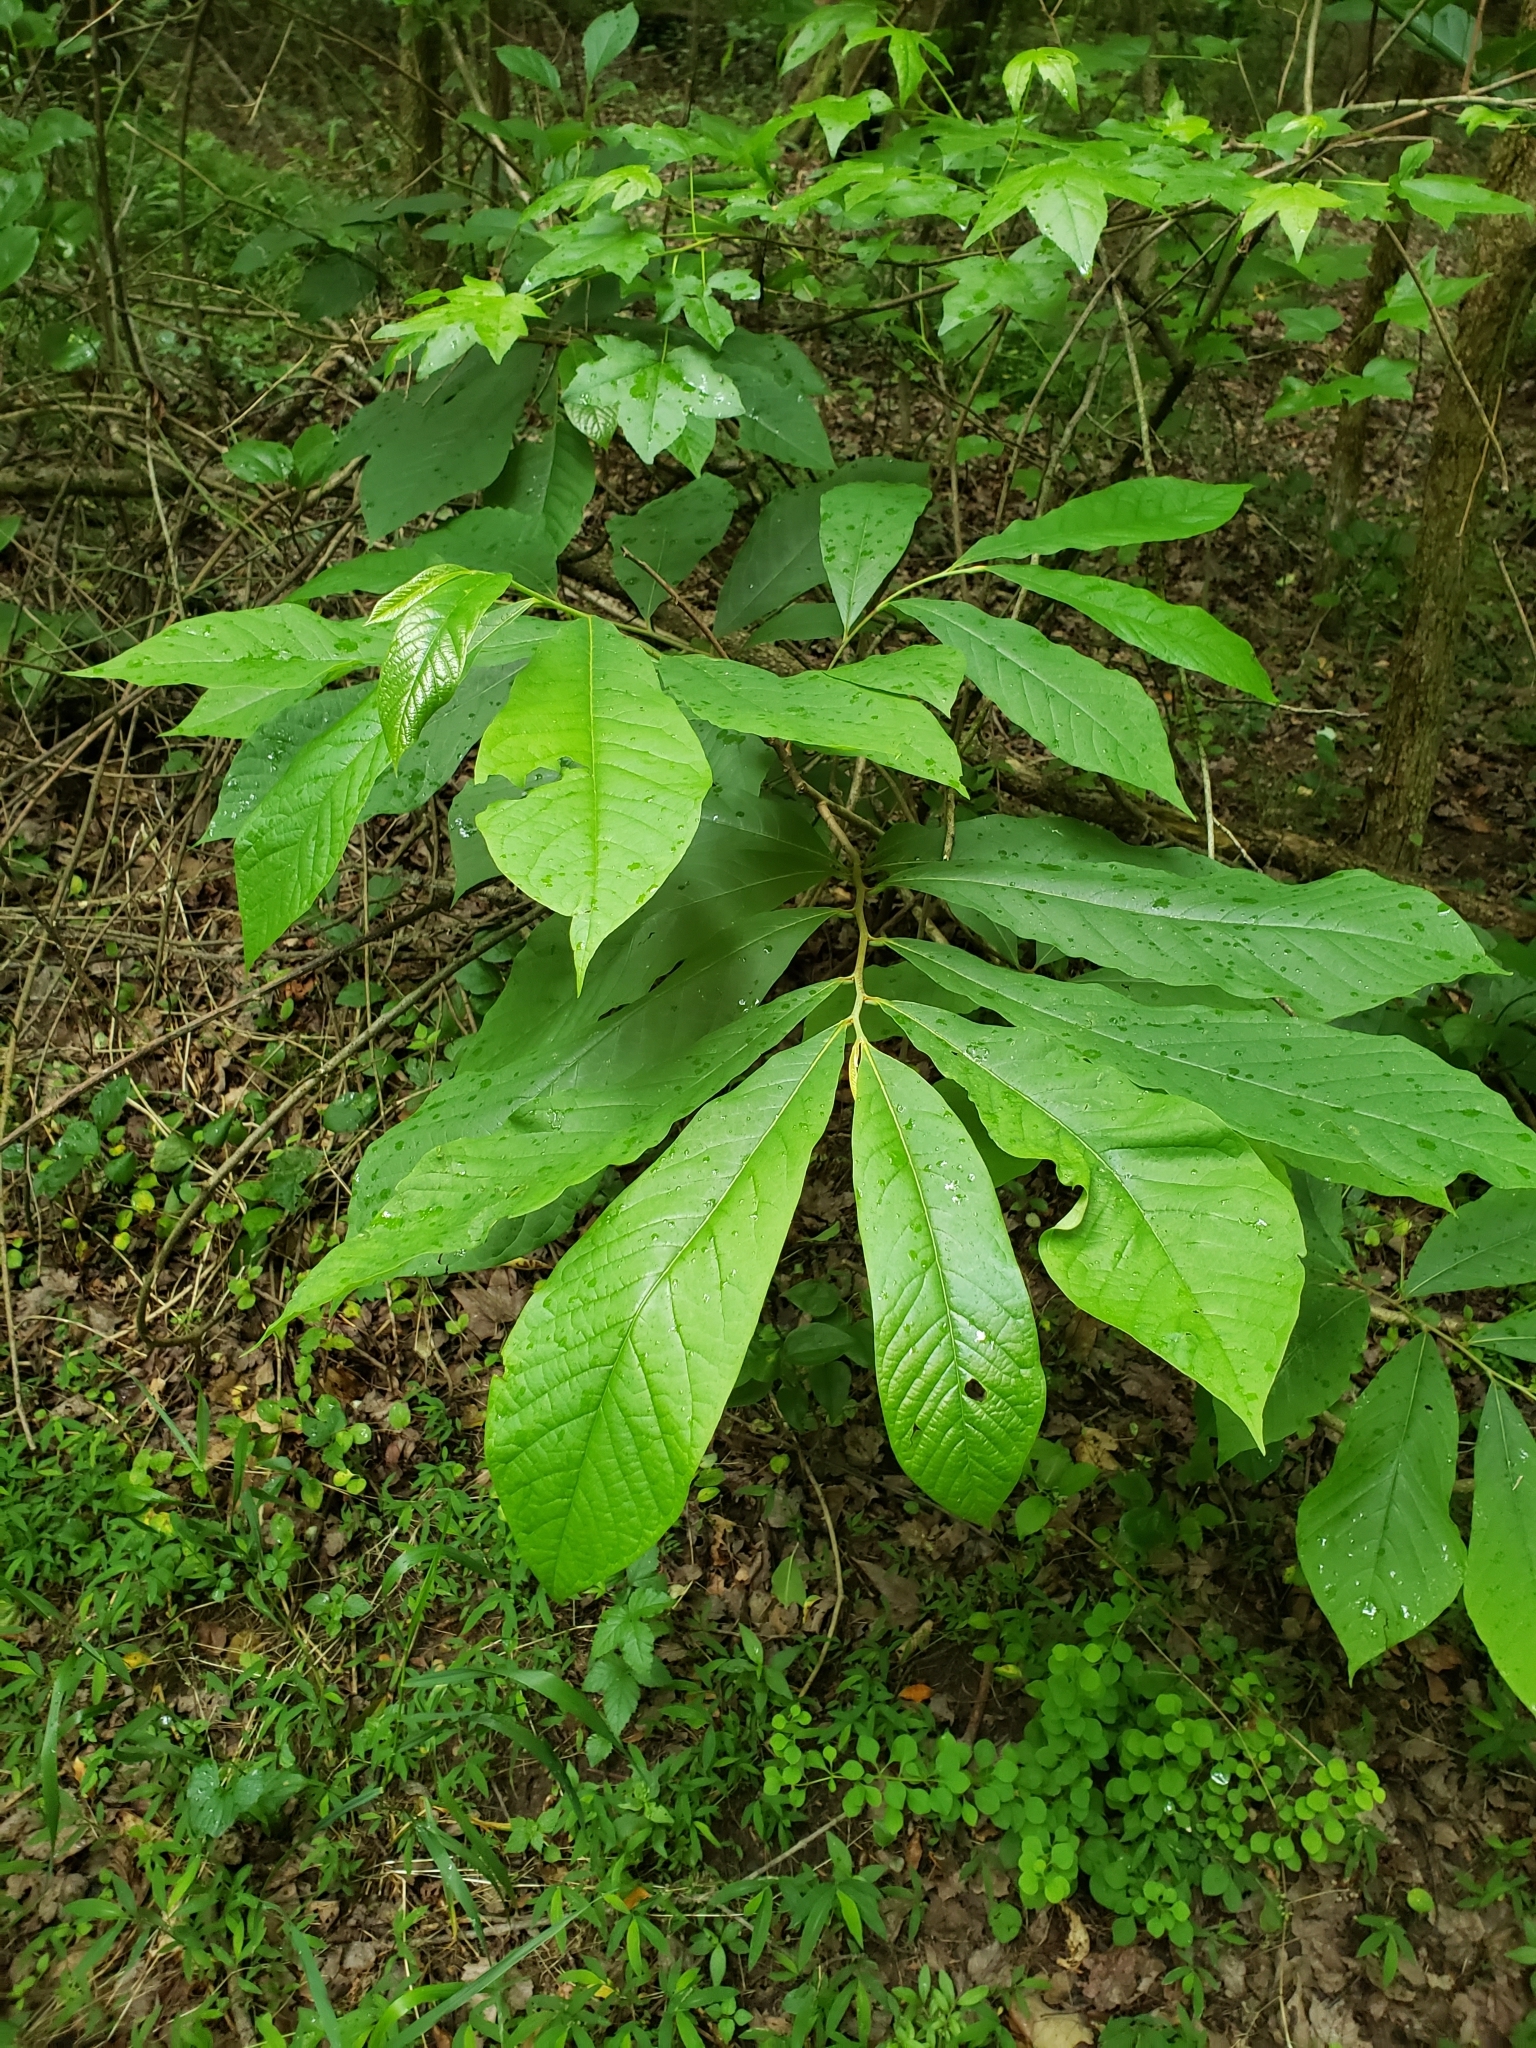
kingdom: Plantae
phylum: Tracheophyta
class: Magnoliopsida
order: Magnoliales
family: Annonaceae
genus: Asimina
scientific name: Asimina triloba
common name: Dog-banana
